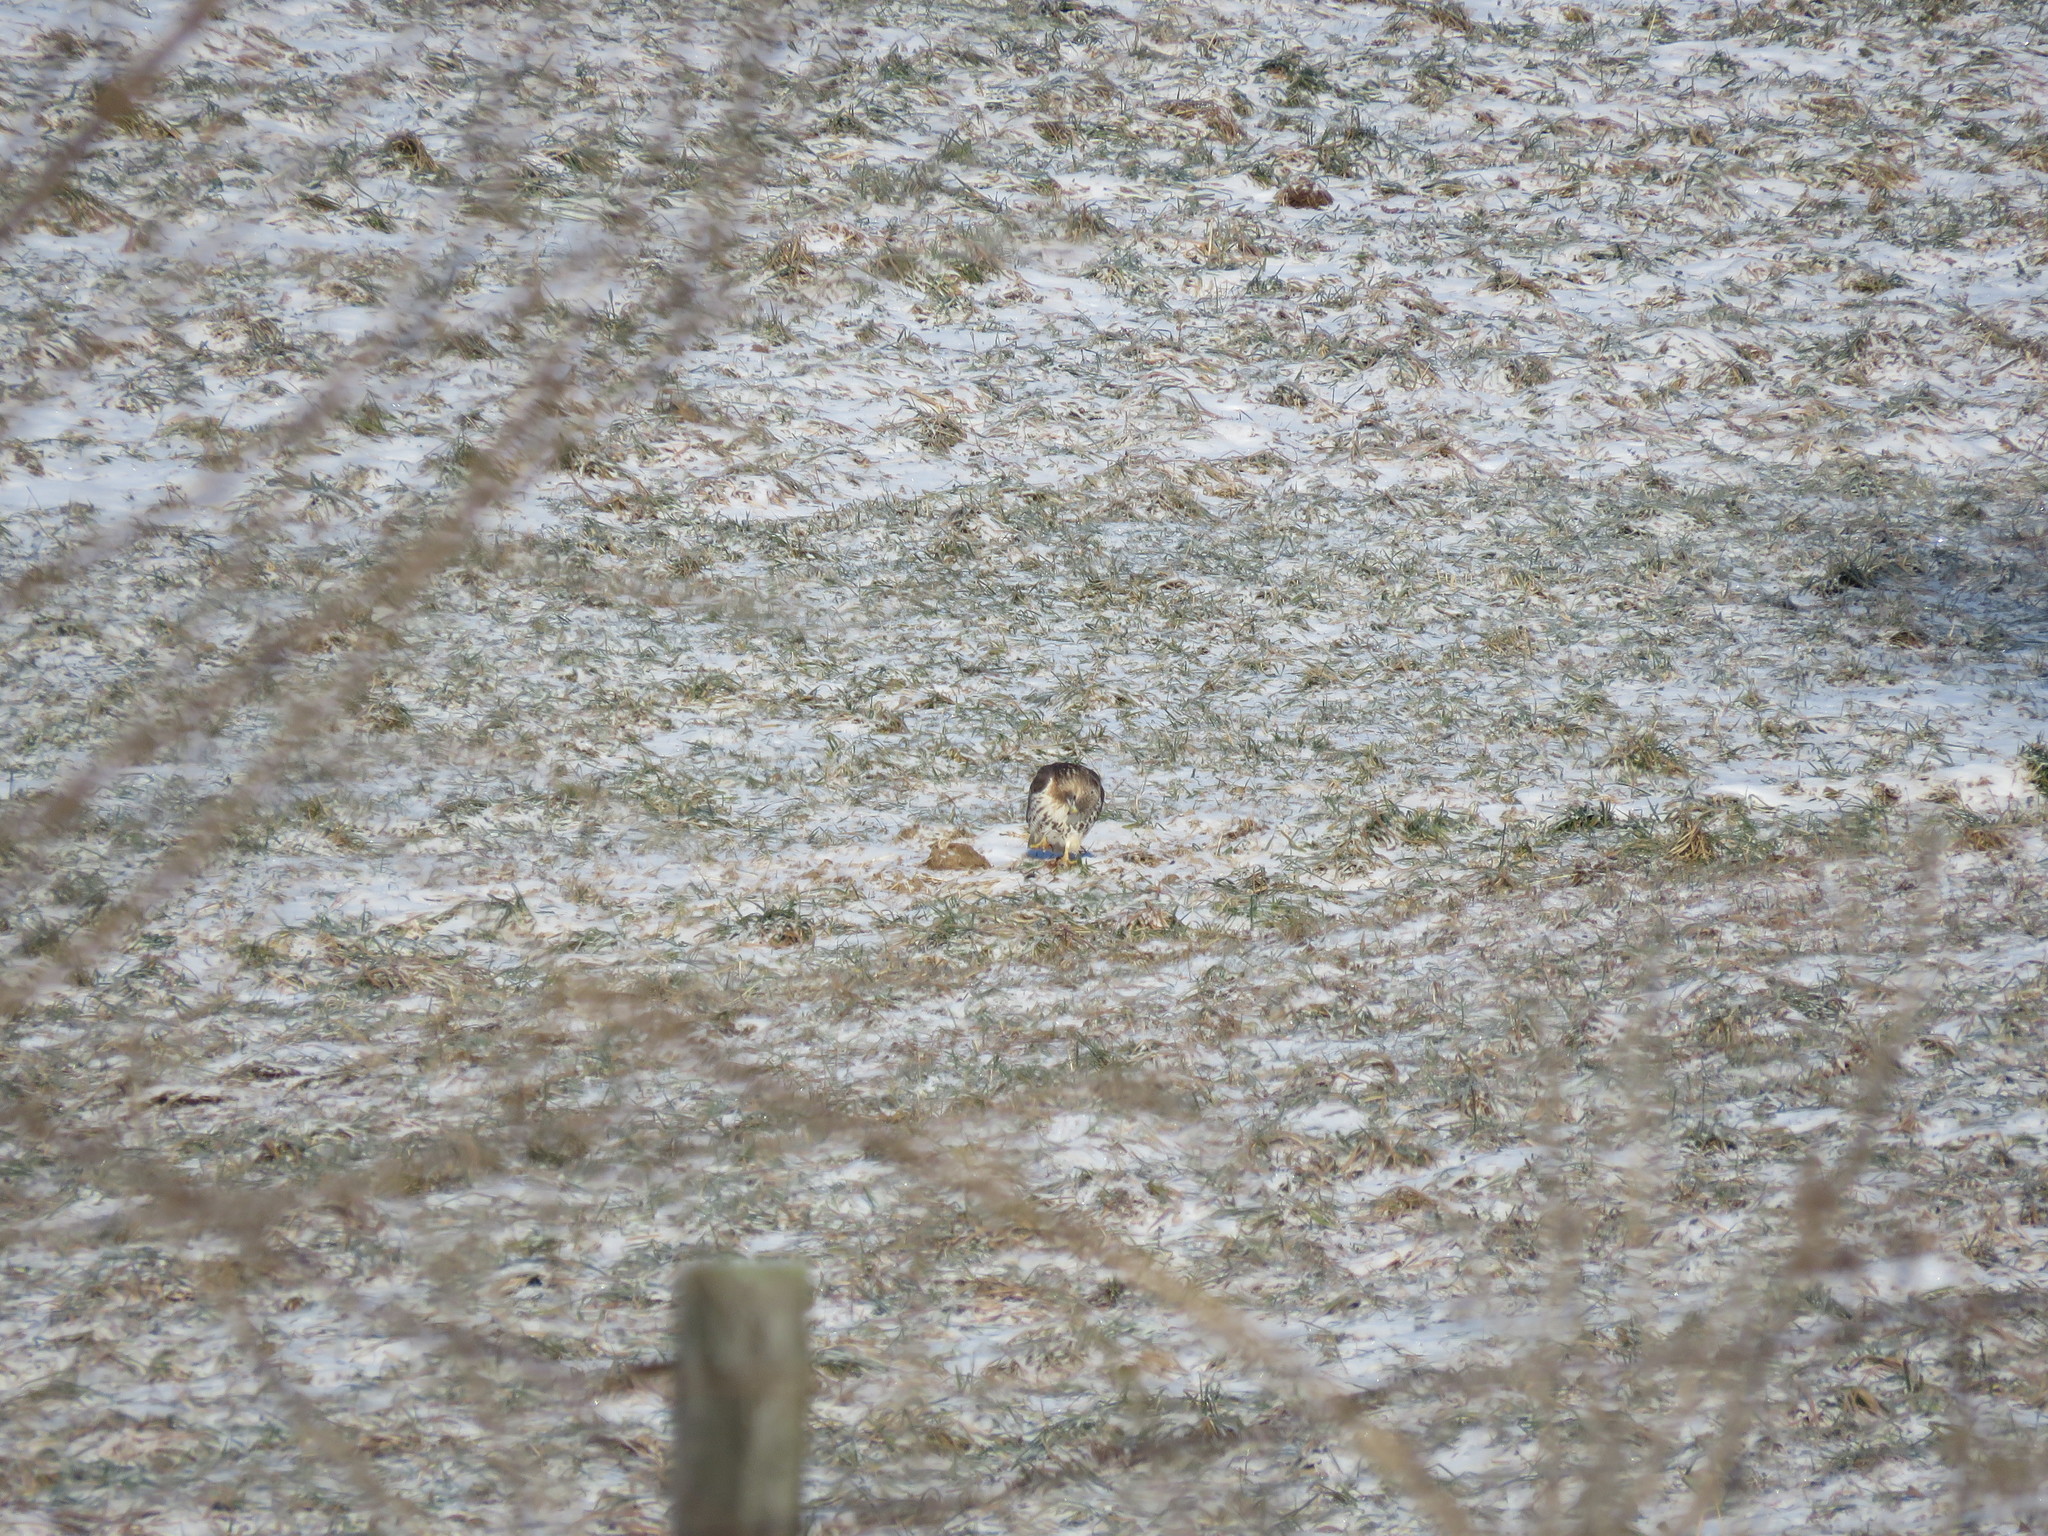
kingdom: Animalia
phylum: Chordata
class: Aves
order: Accipitriformes
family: Accipitridae
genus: Buteo
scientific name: Buteo jamaicensis
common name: Red-tailed hawk
